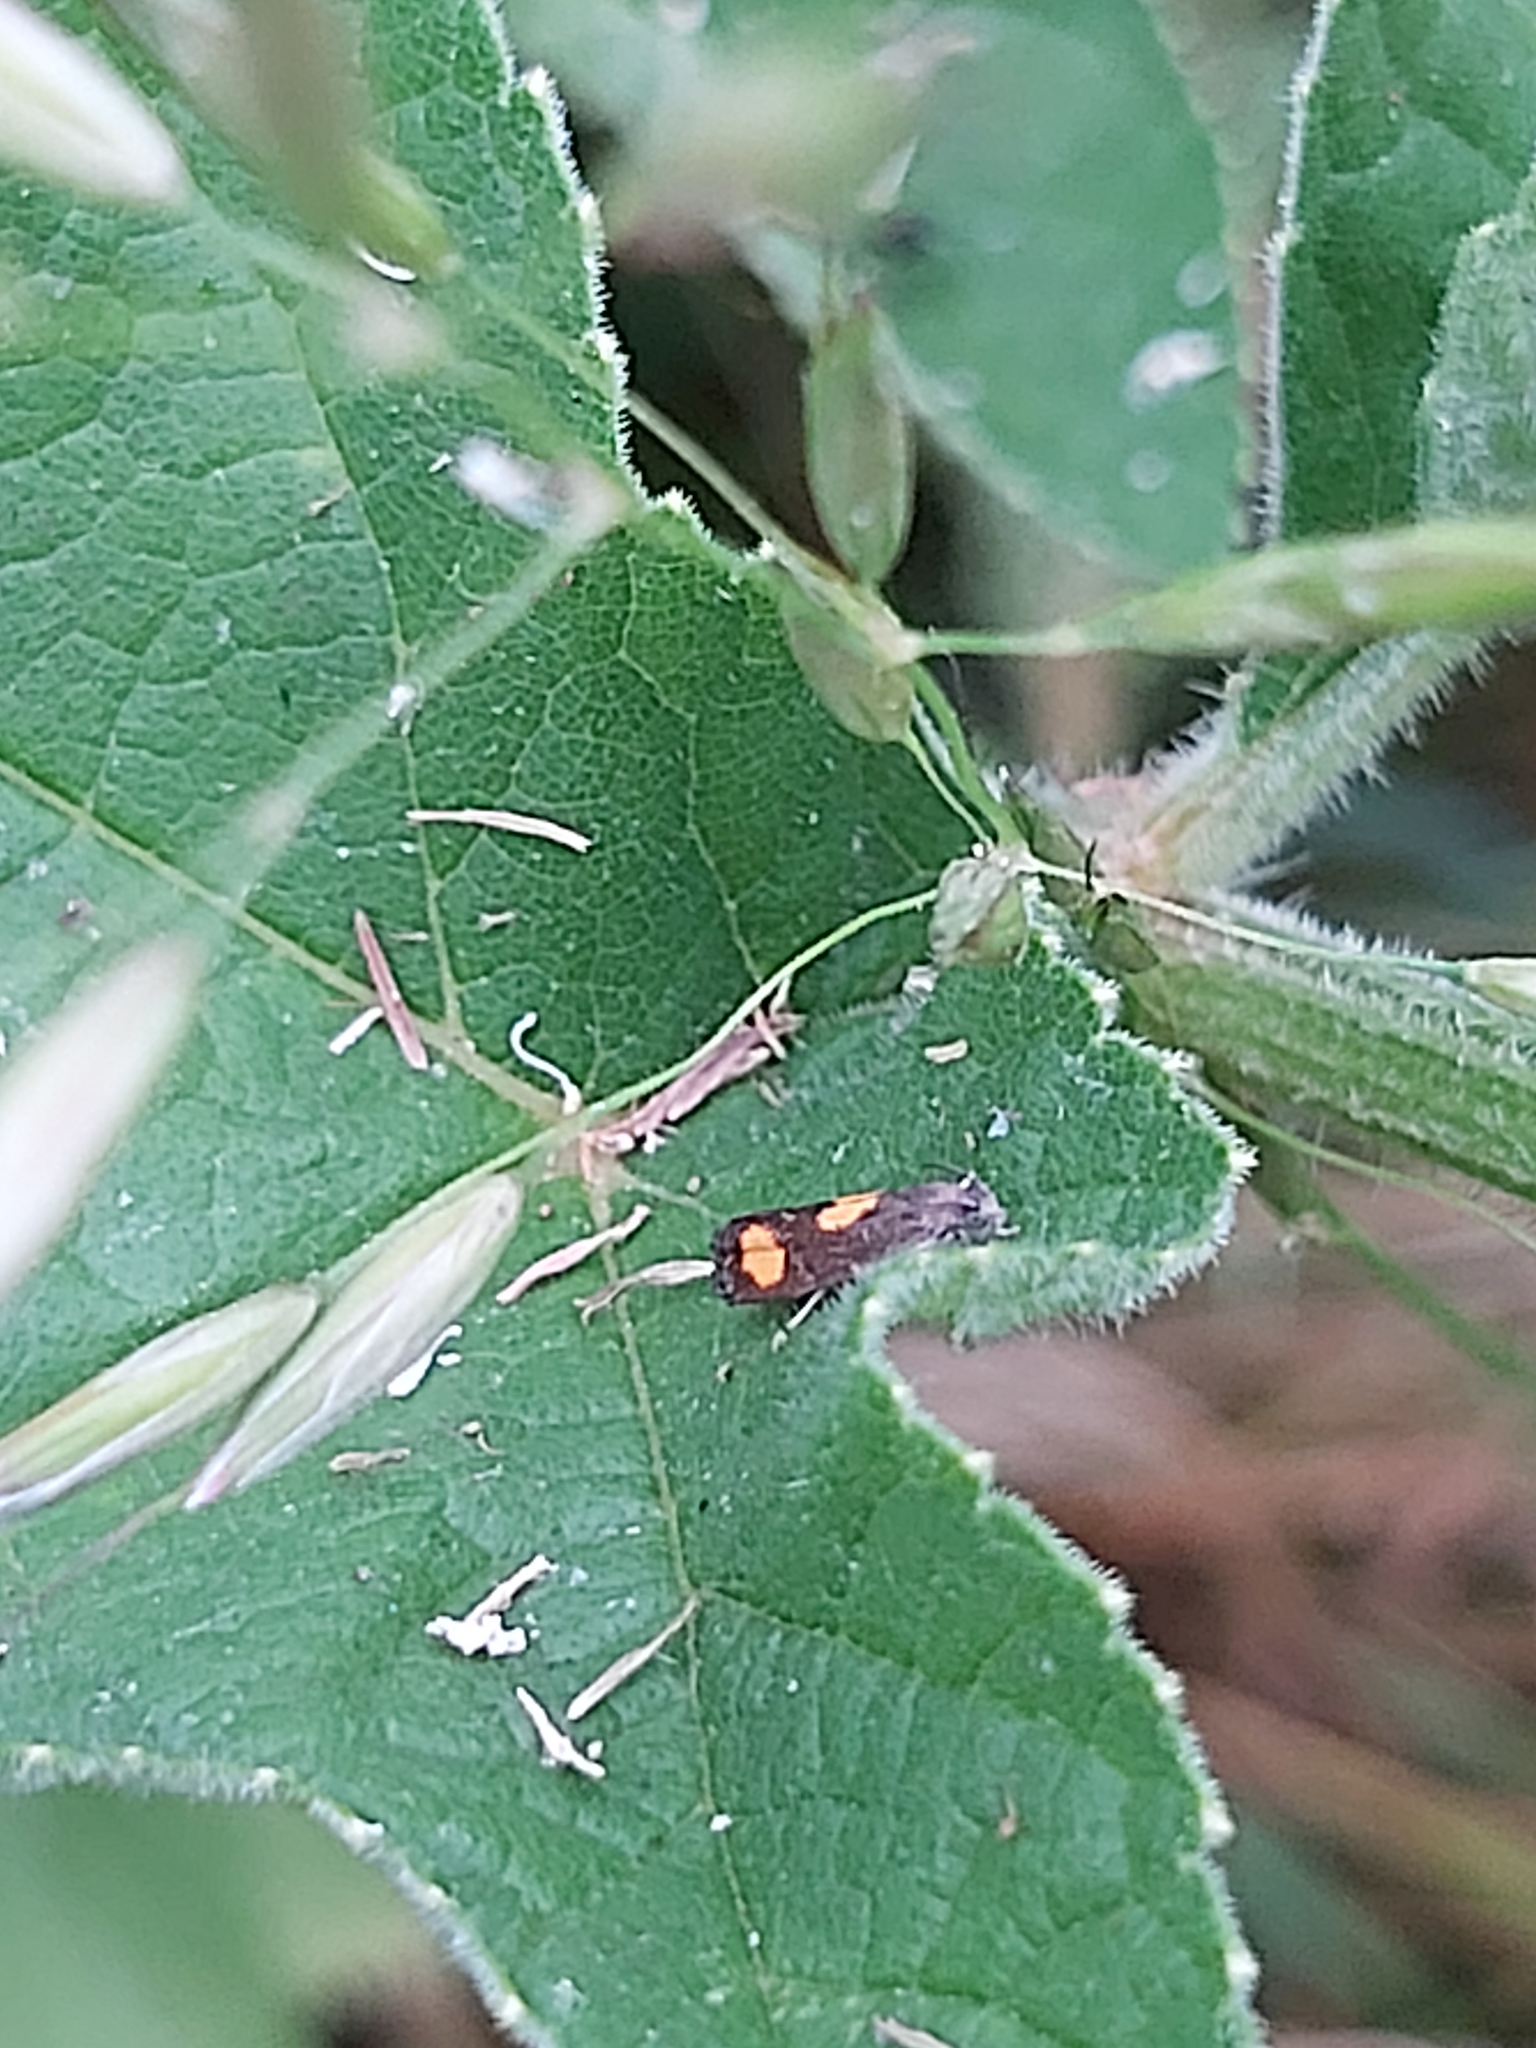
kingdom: Animalia
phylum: Arthropoda
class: Insecta
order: Lepidoptera
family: Tortricidae
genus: Pammene
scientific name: Pammene aurana
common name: Orange-spot piercer
